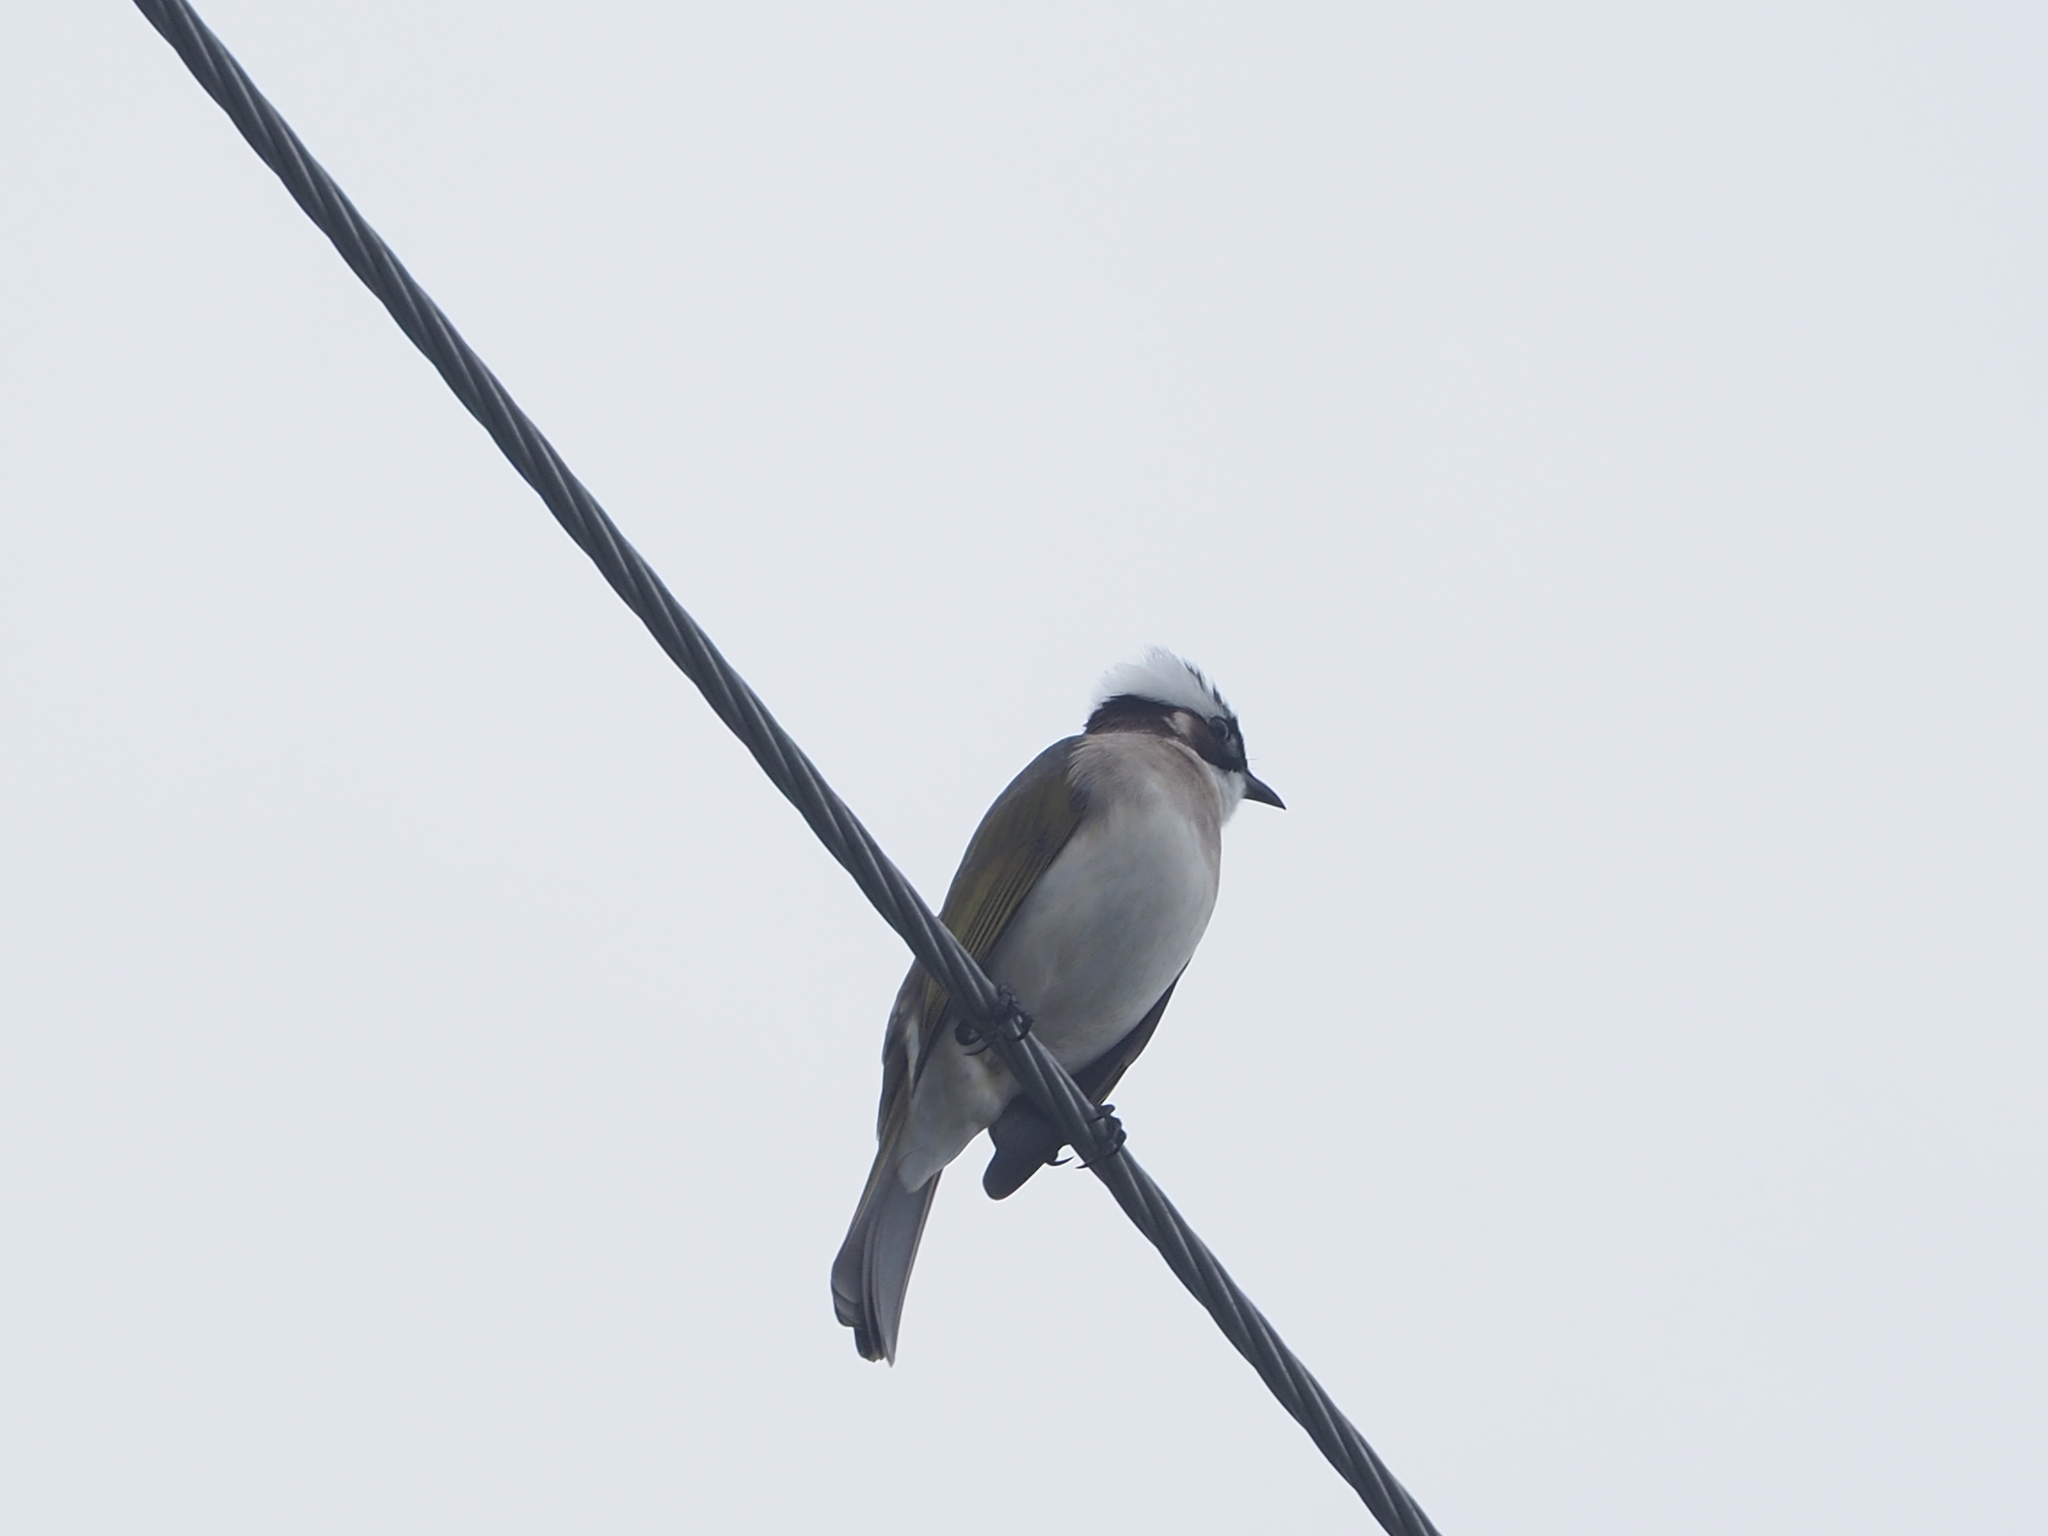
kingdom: Animalia
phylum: Chordata
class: Aves
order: Passeriformes
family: Pycnonotidae
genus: Pycnonotus
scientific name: Pycnonotus sinensis
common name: Light-vented bulbul
